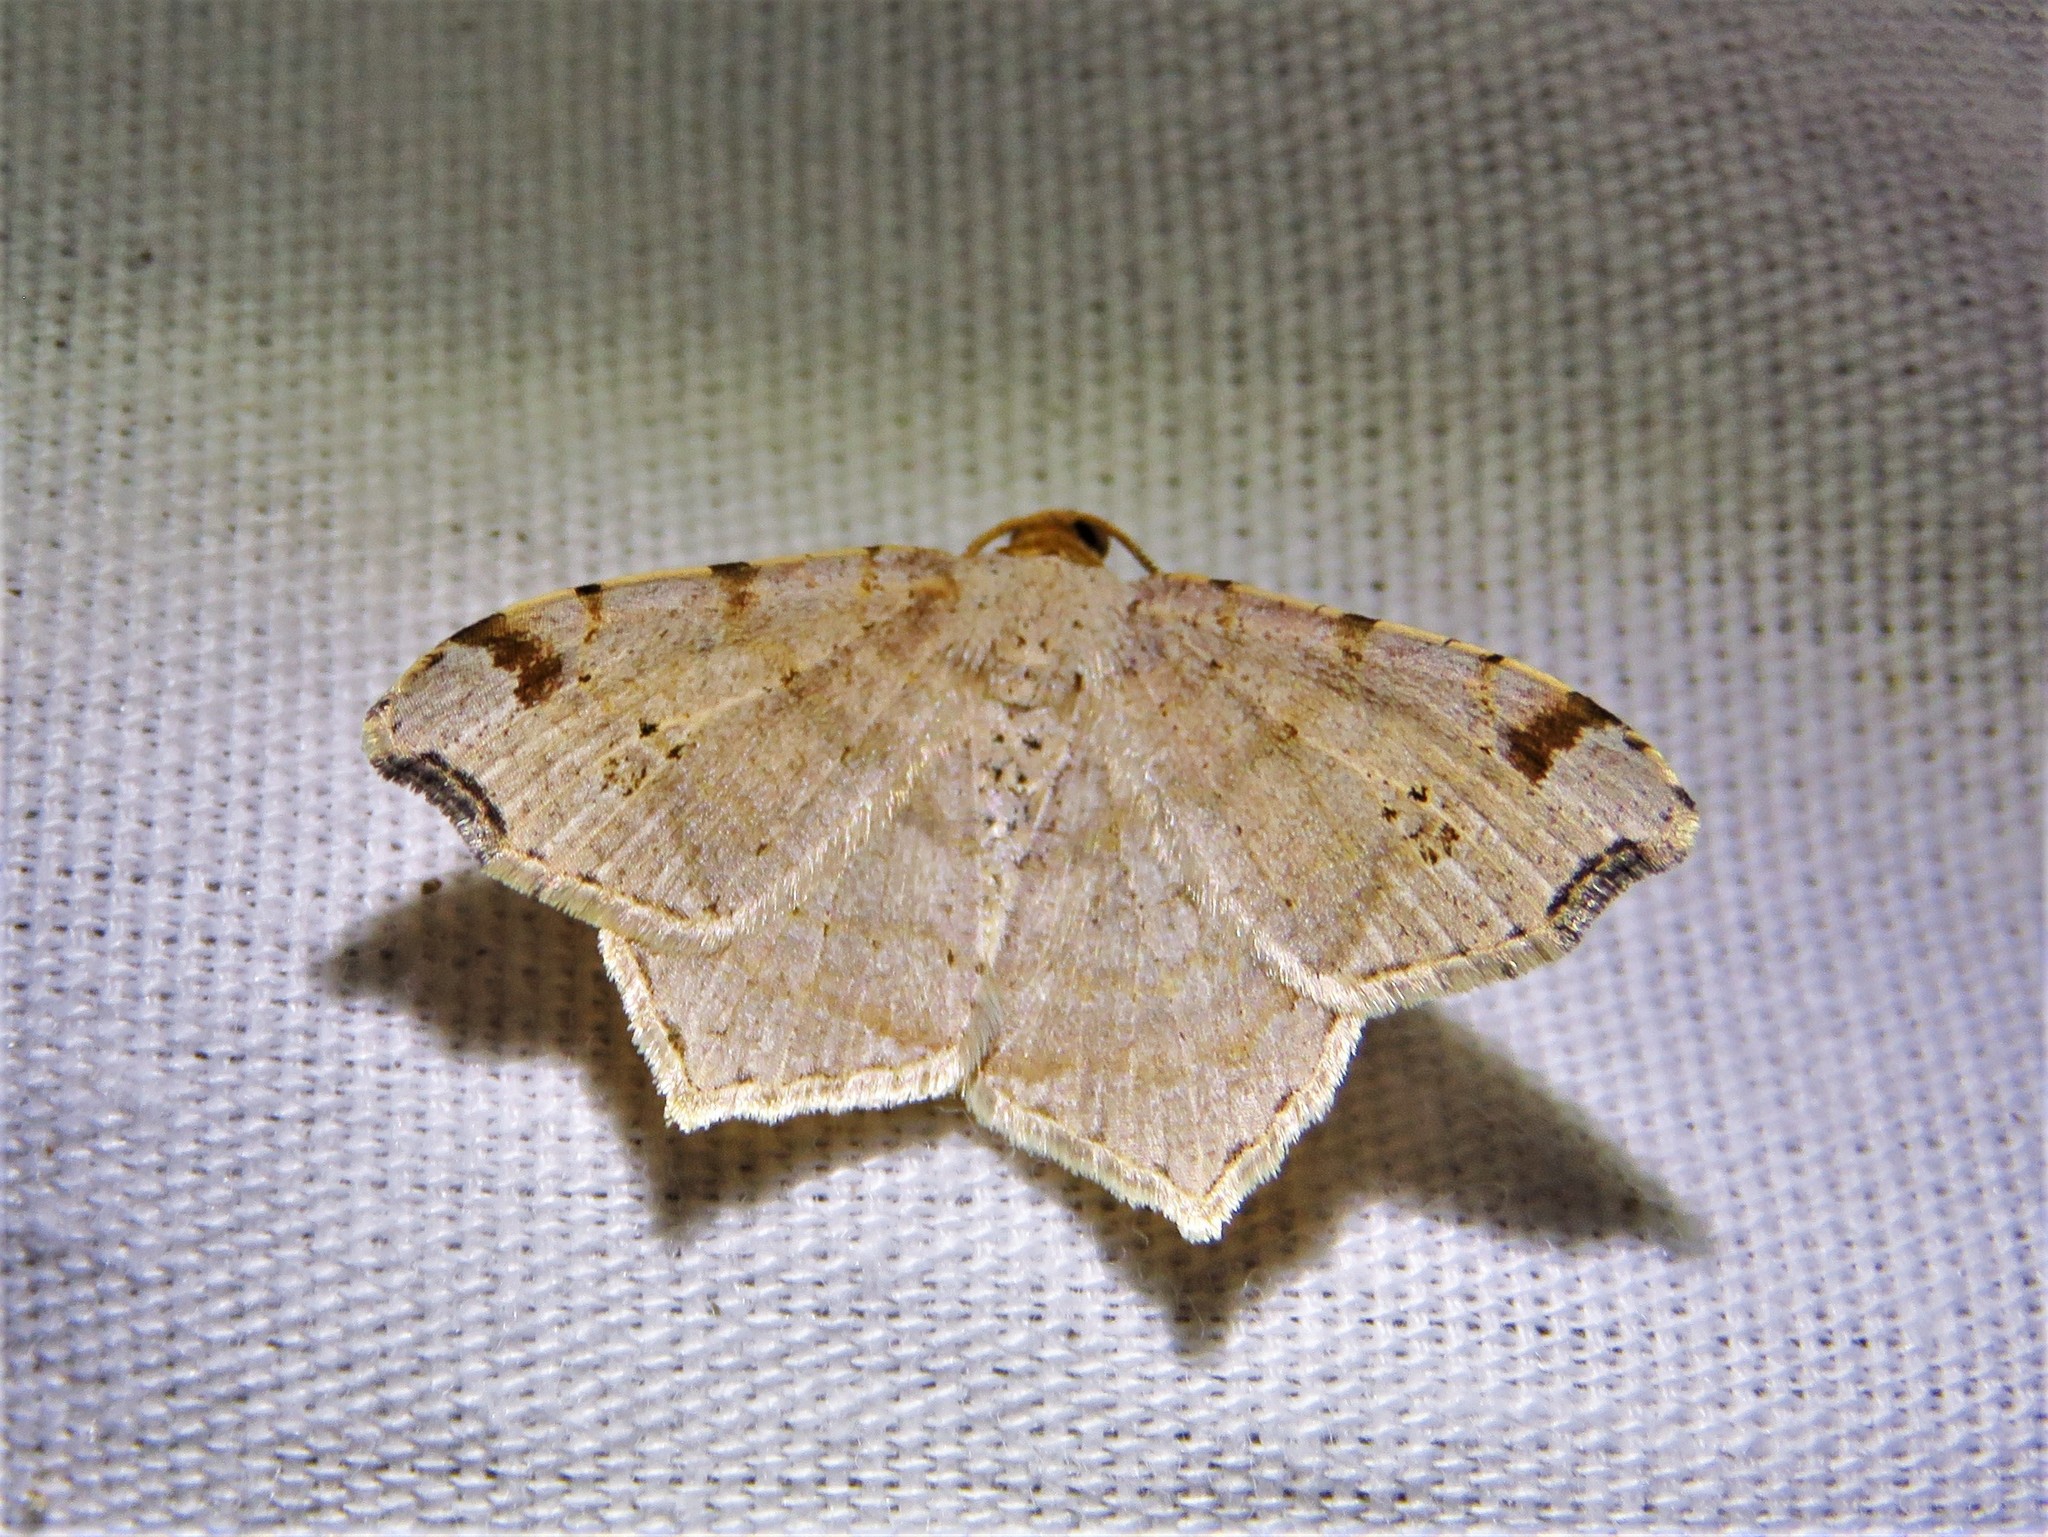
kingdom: Animalia
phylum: Arthropoda
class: Insecta
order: Lepidoptera
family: Geometridae
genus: Macaria
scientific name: Macaria aemulataria
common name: Common angle
